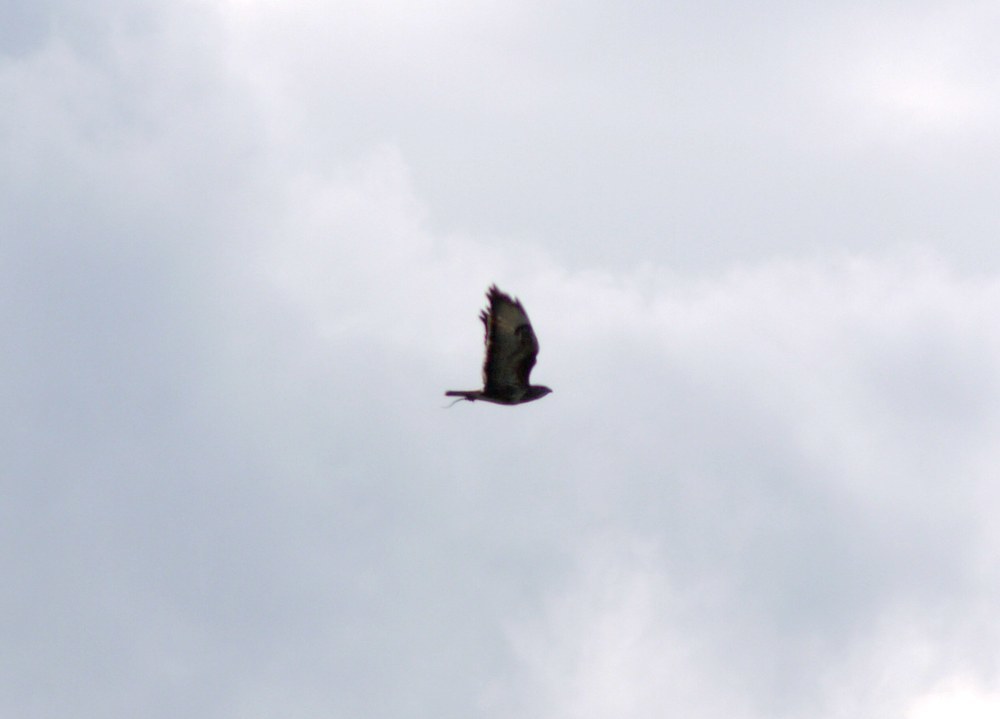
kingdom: Animalia
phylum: Chordata
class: Aves
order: Accipitriformes
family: Accipitridae
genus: Buteo
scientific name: Buteo buteo
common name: Common buzzard
